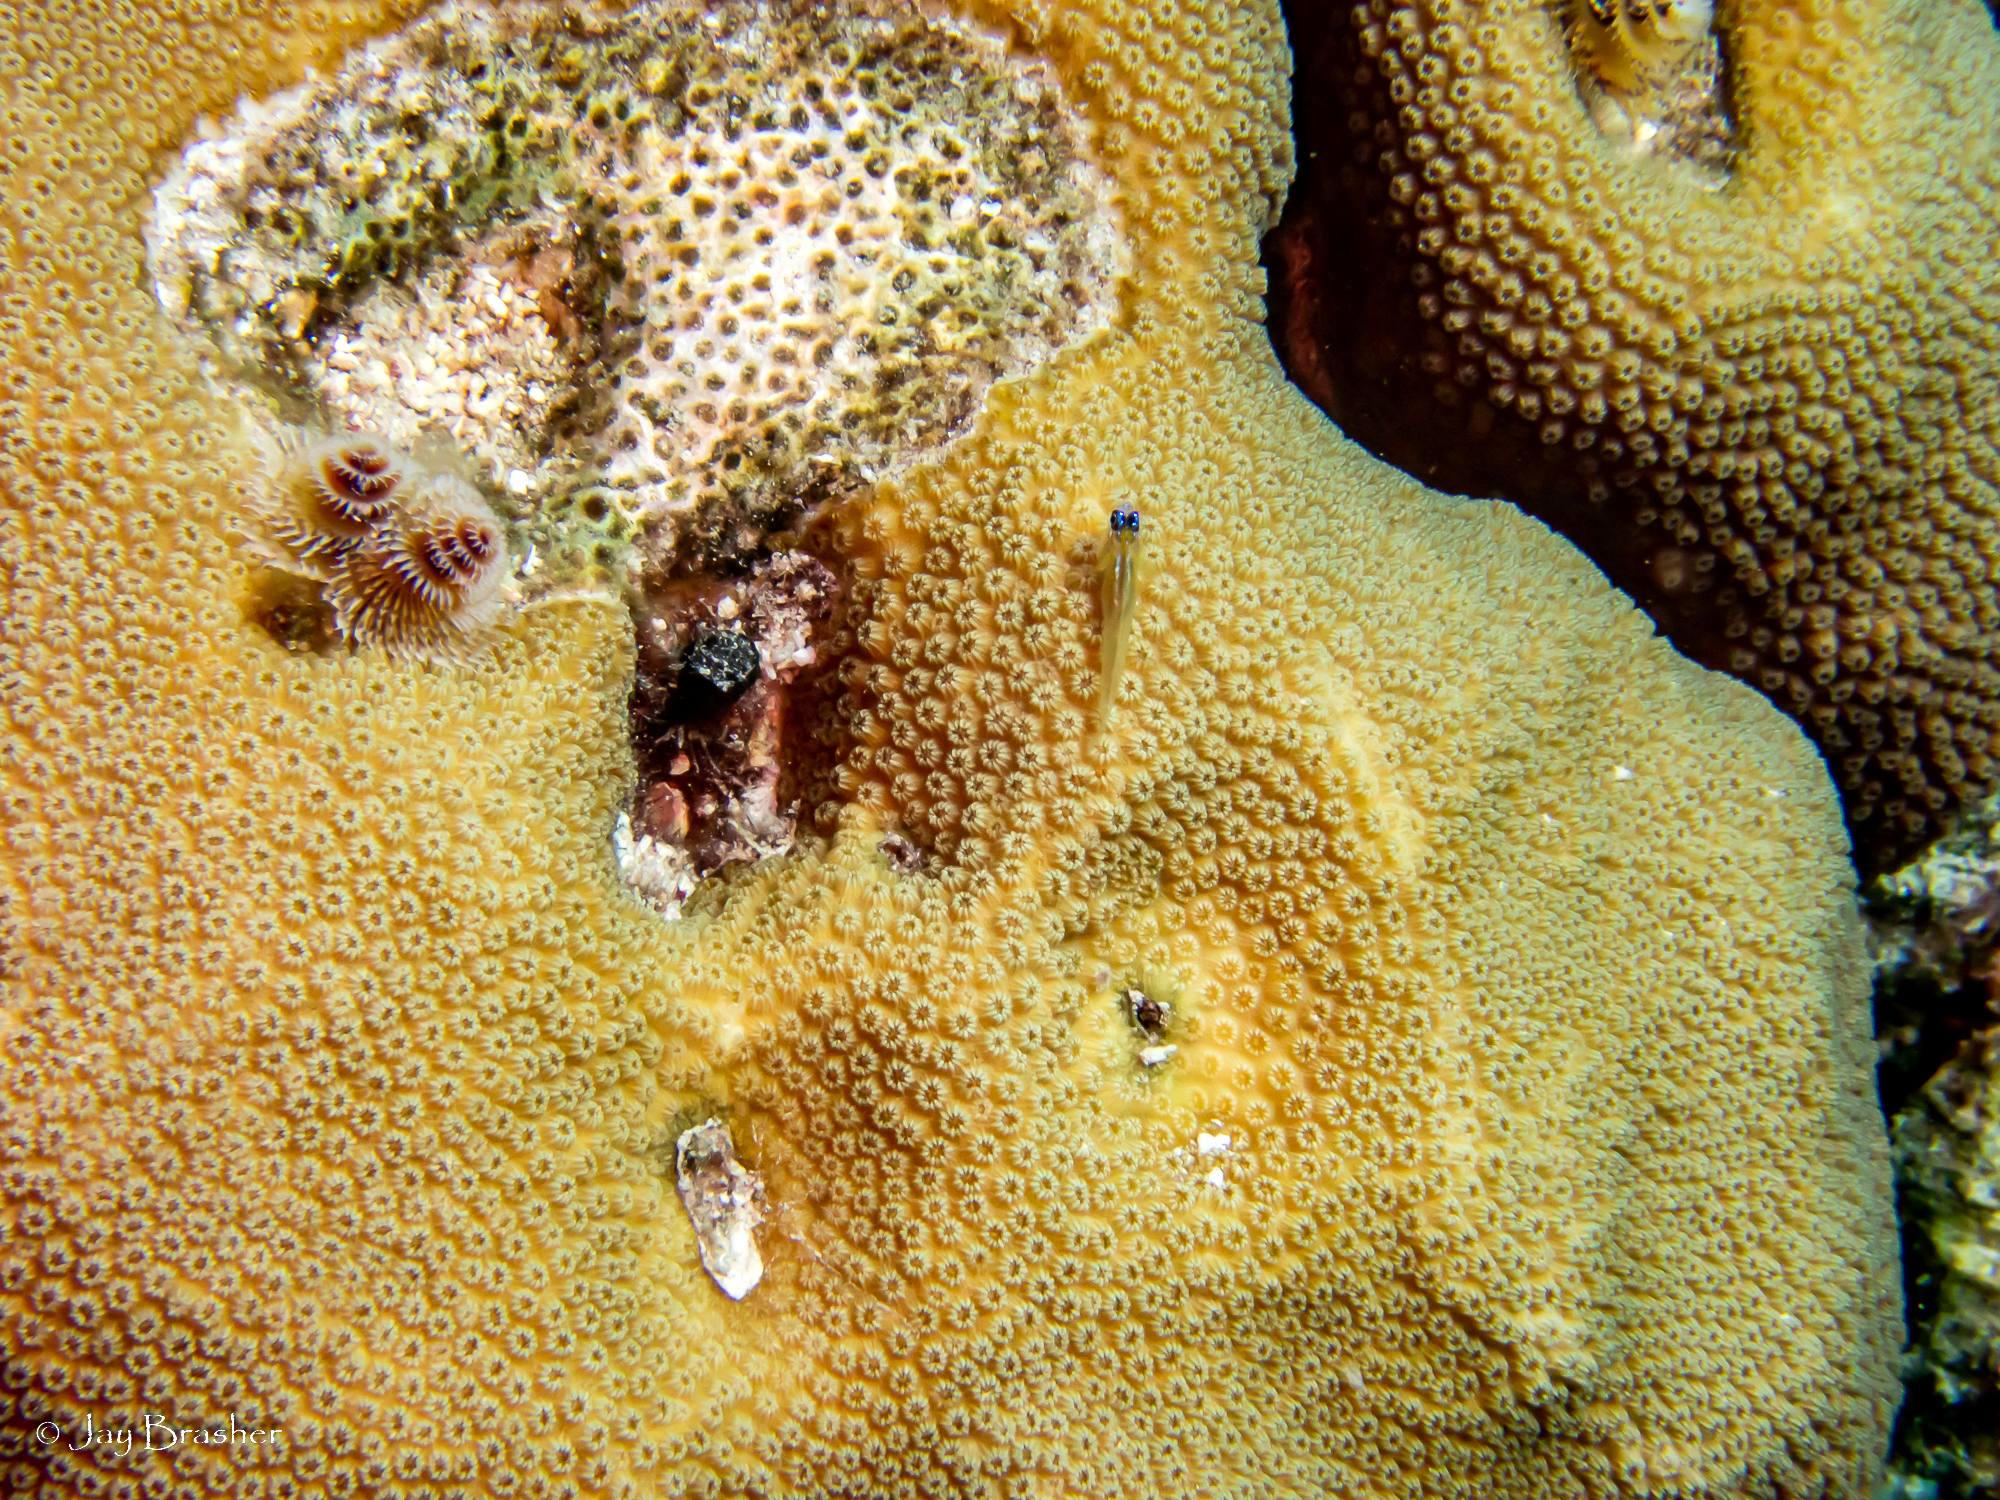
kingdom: Animalia
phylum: Chordata
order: Perciformes
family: Gobiidae
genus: Coryphopterus
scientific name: Coryphopterus lipernes
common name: Peppermint goby
